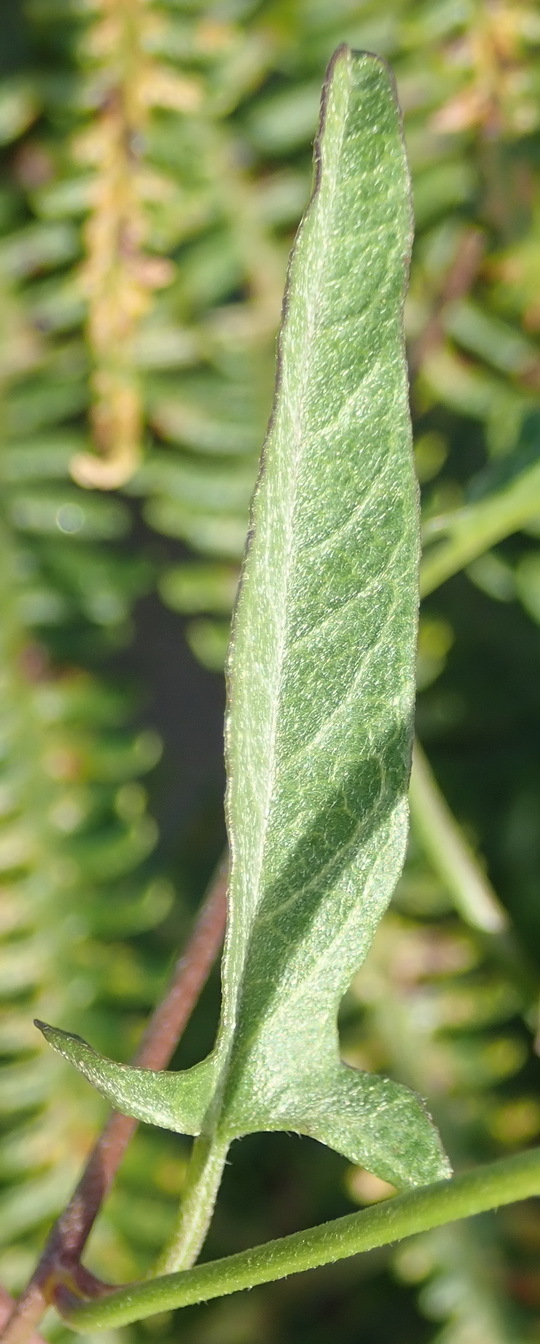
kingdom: Plantae
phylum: Tracheophyta
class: Magnoliopsida
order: Solanales
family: Convolvulaceae
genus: Convolvulus
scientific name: Convolvulus sagittatus
